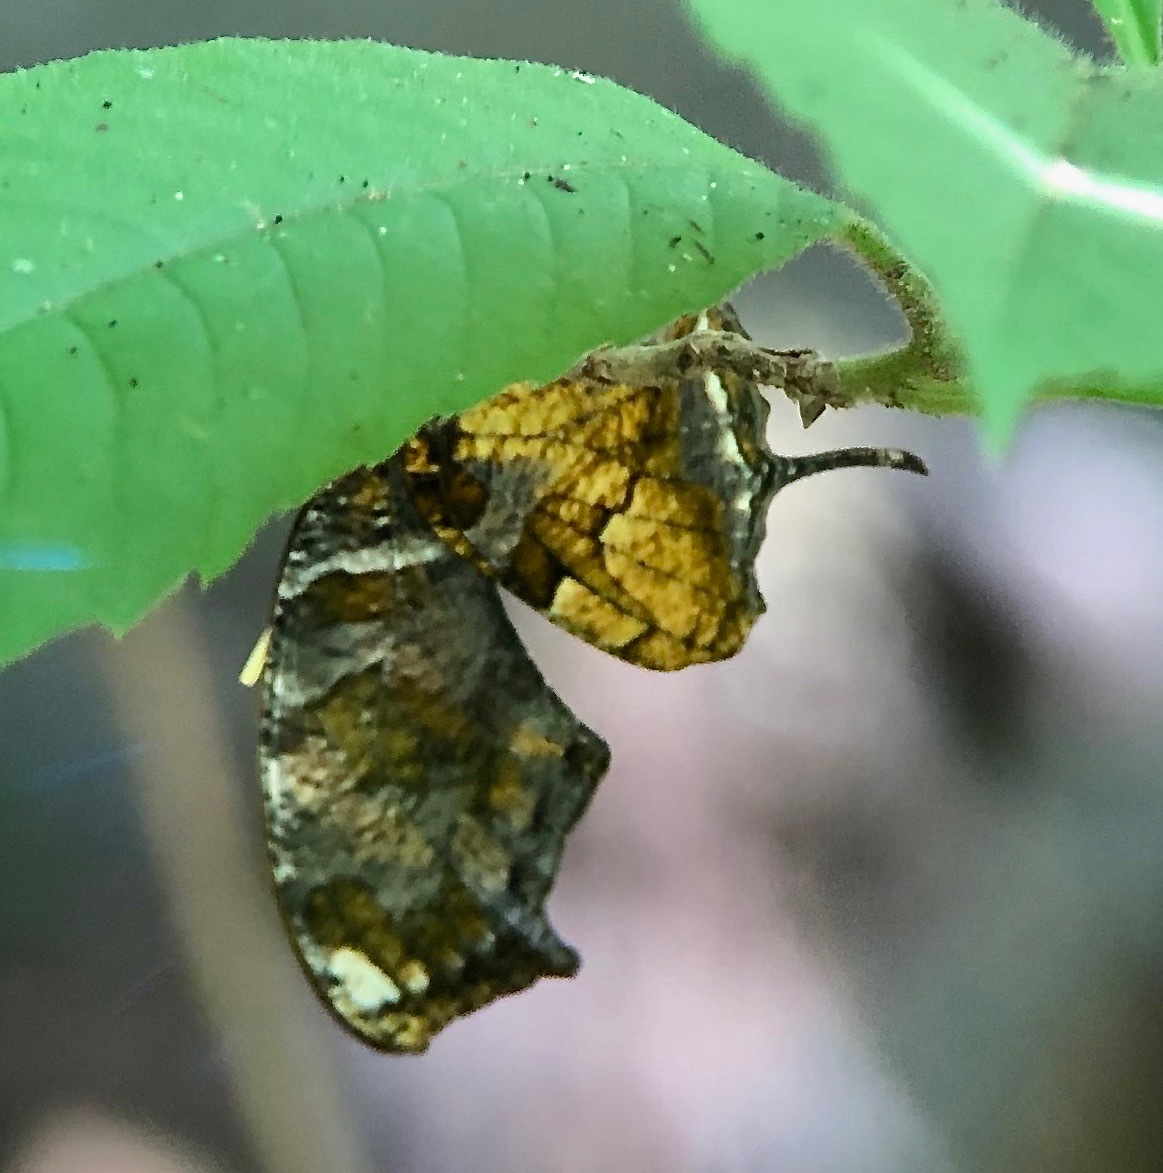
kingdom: Animalia
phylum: Arthropoda
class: Insecta
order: Lepidoptera
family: Nymphalidae
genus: Consul
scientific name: Consul fabius
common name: Tiger leafwing
